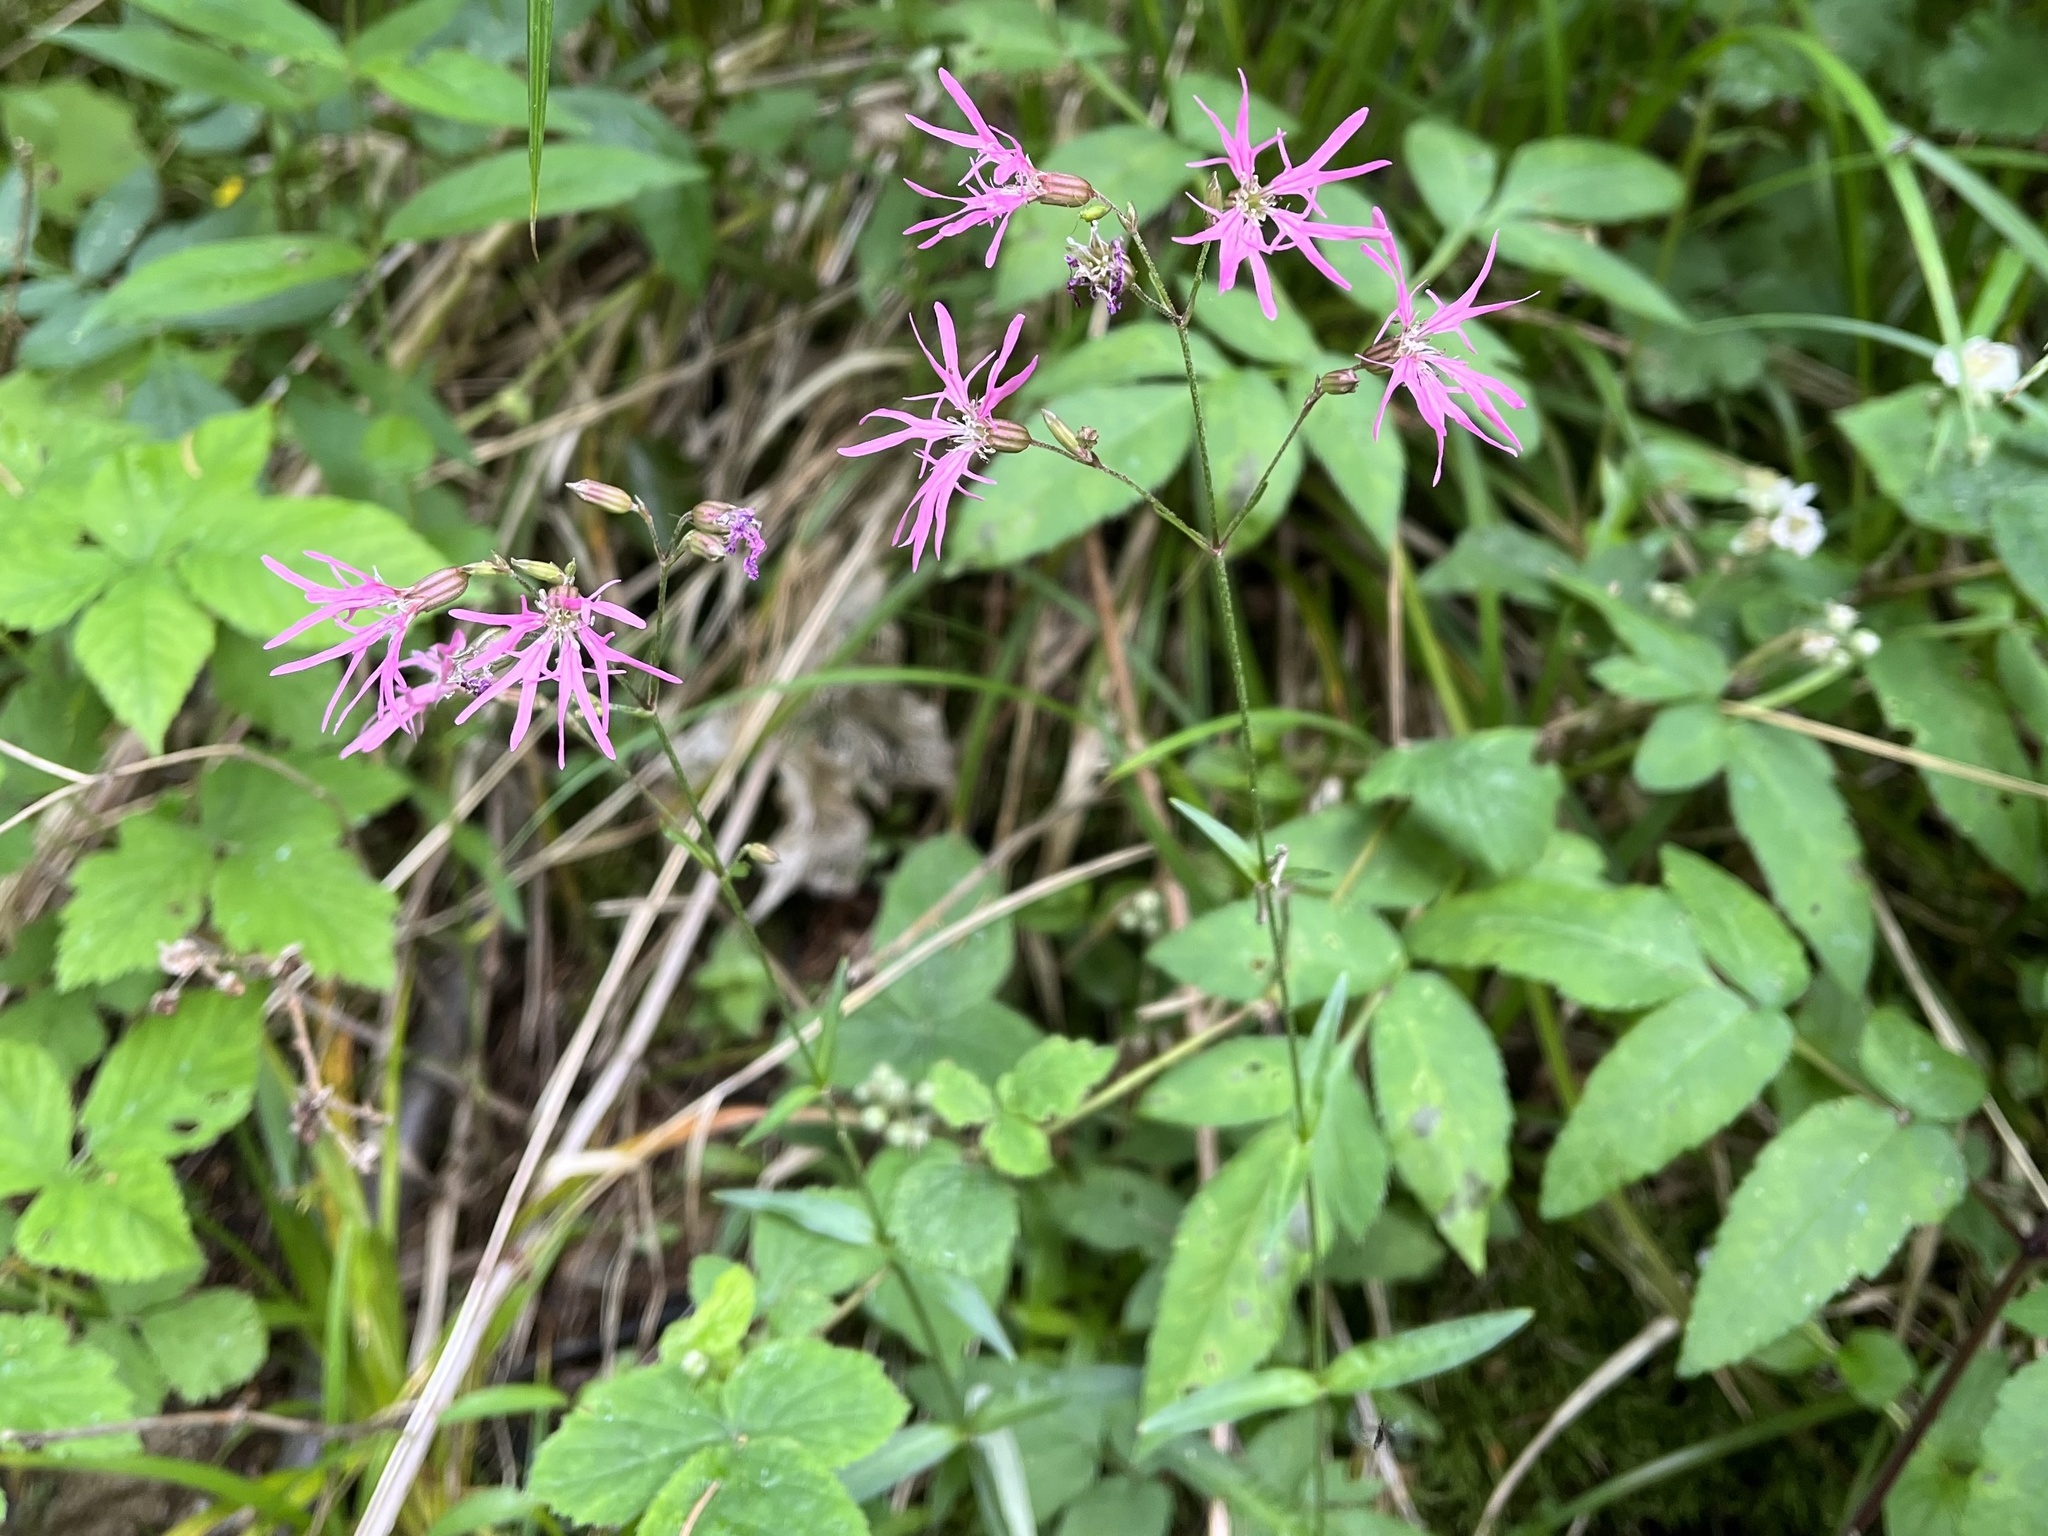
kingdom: Plantae
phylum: Tracheophyta
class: Magnoliopsida
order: Caryophyllales
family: Caryophyllaceae
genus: Silene
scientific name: Silene flos-cuculi
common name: Ragged-robin
